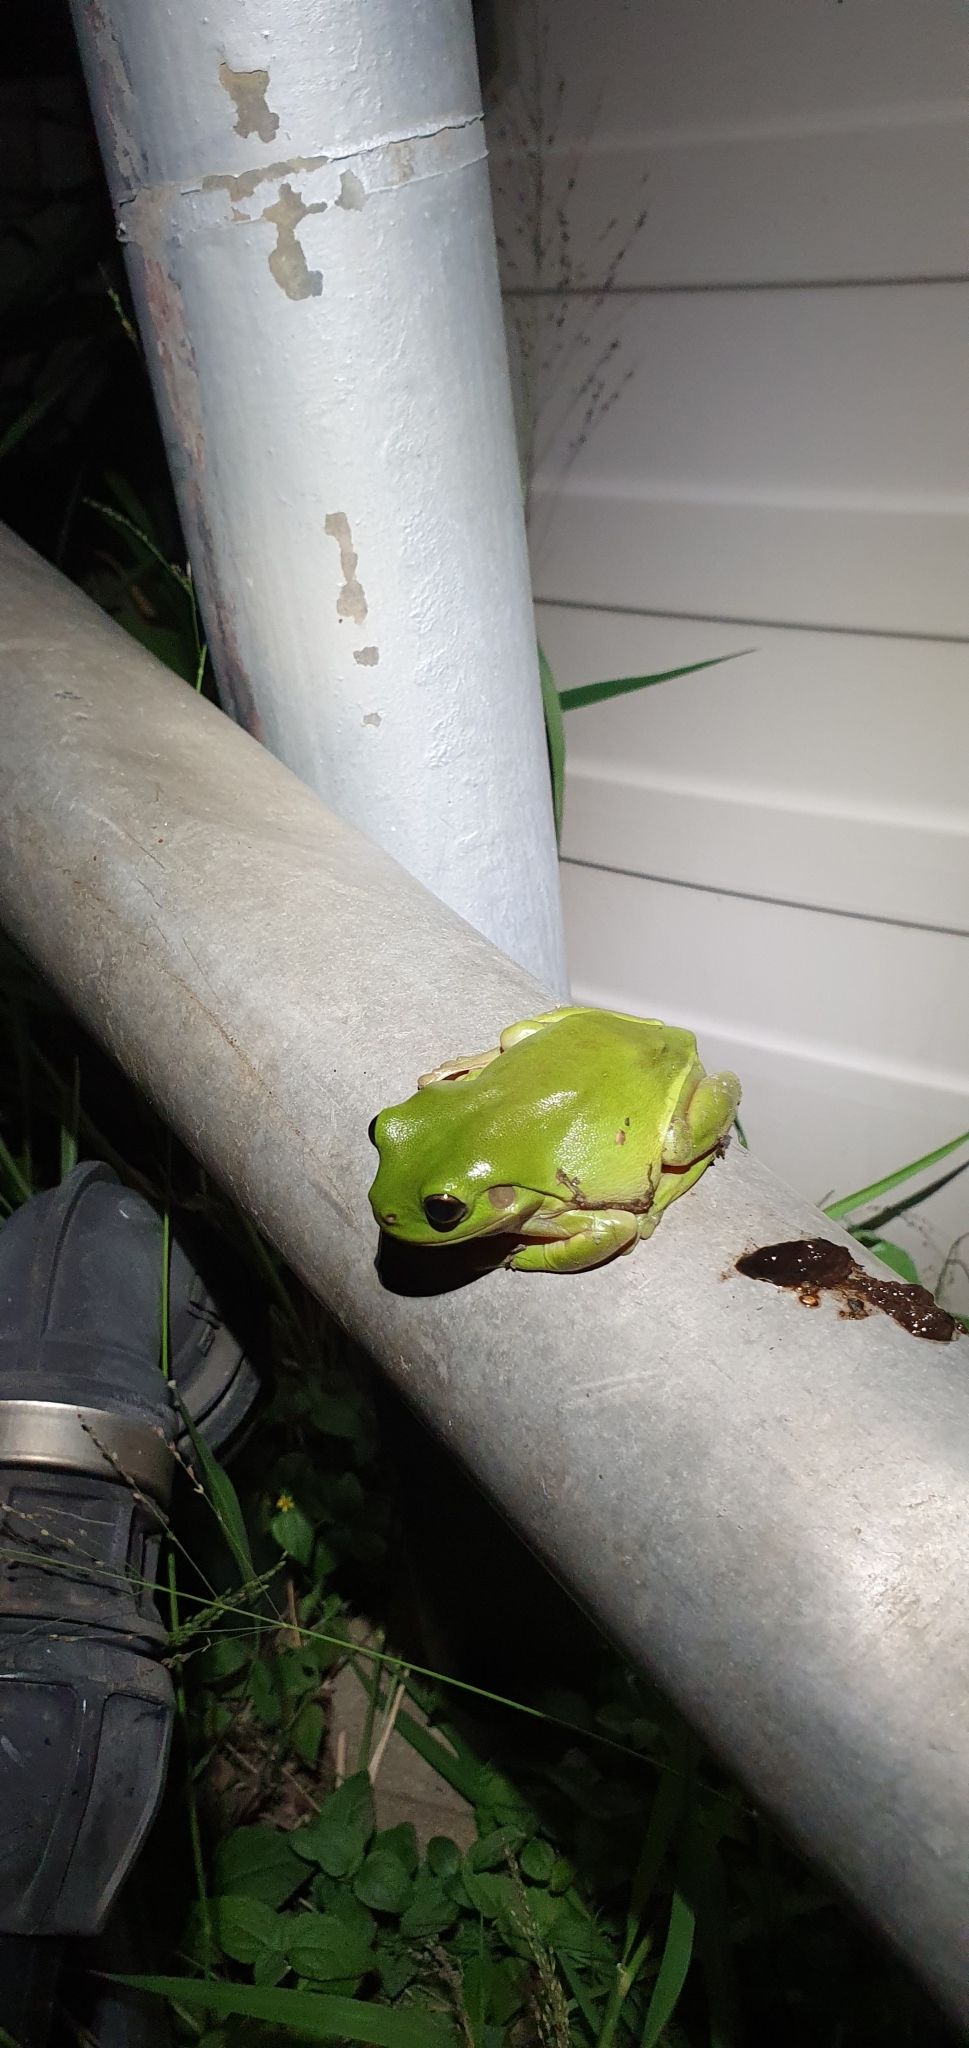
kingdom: Animalia
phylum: Chordata
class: Amphibia
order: Anura
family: Pelodryadidae
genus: Ranoidea
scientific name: Ranoidea caerulea
